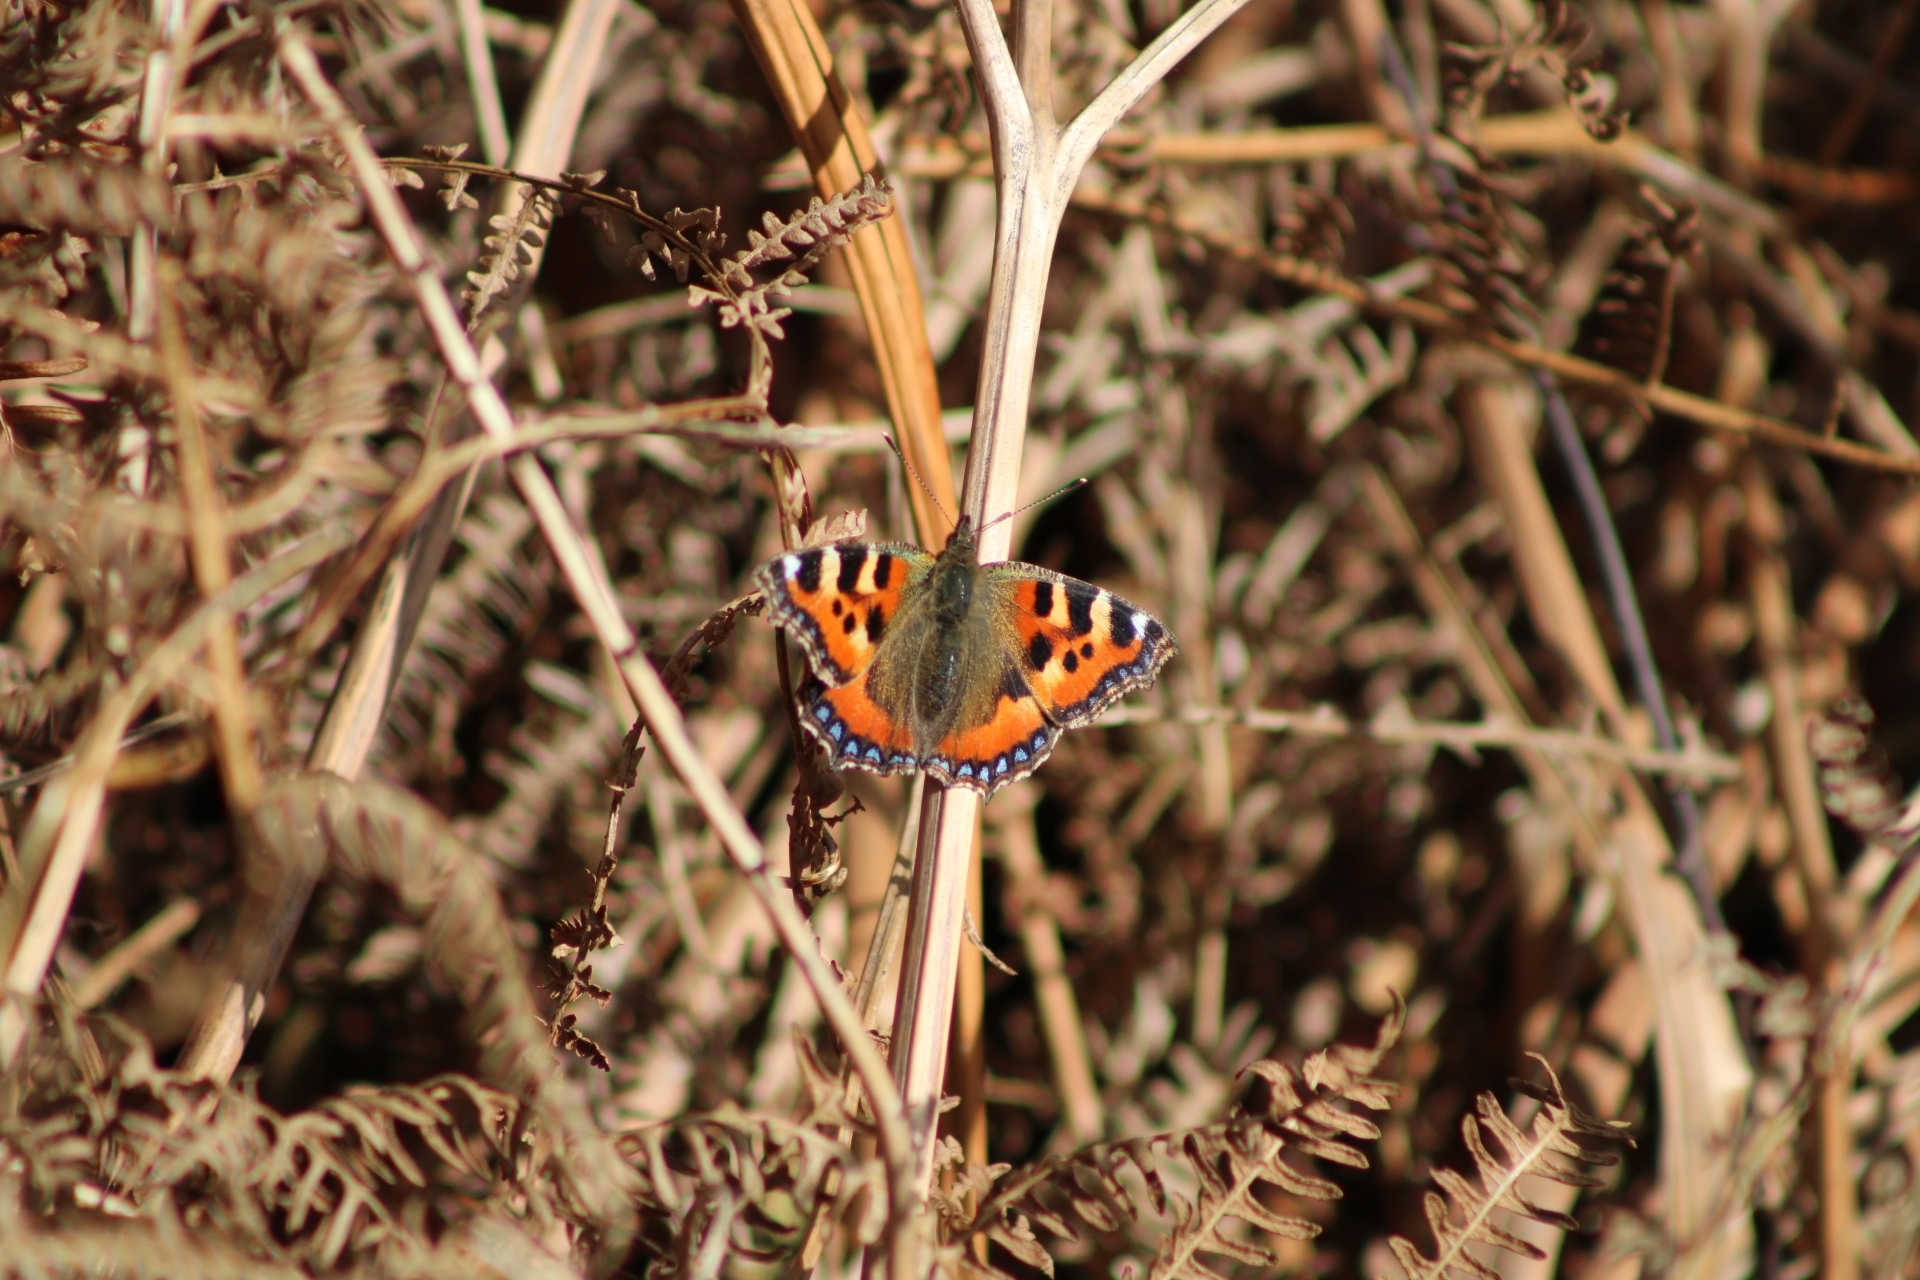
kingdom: Animalia
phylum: Arthropoda
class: Insecta
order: Lepidoptera
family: Nymphalidae
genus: Aglais
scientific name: Aglais urticae
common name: Small tortoiseshell
